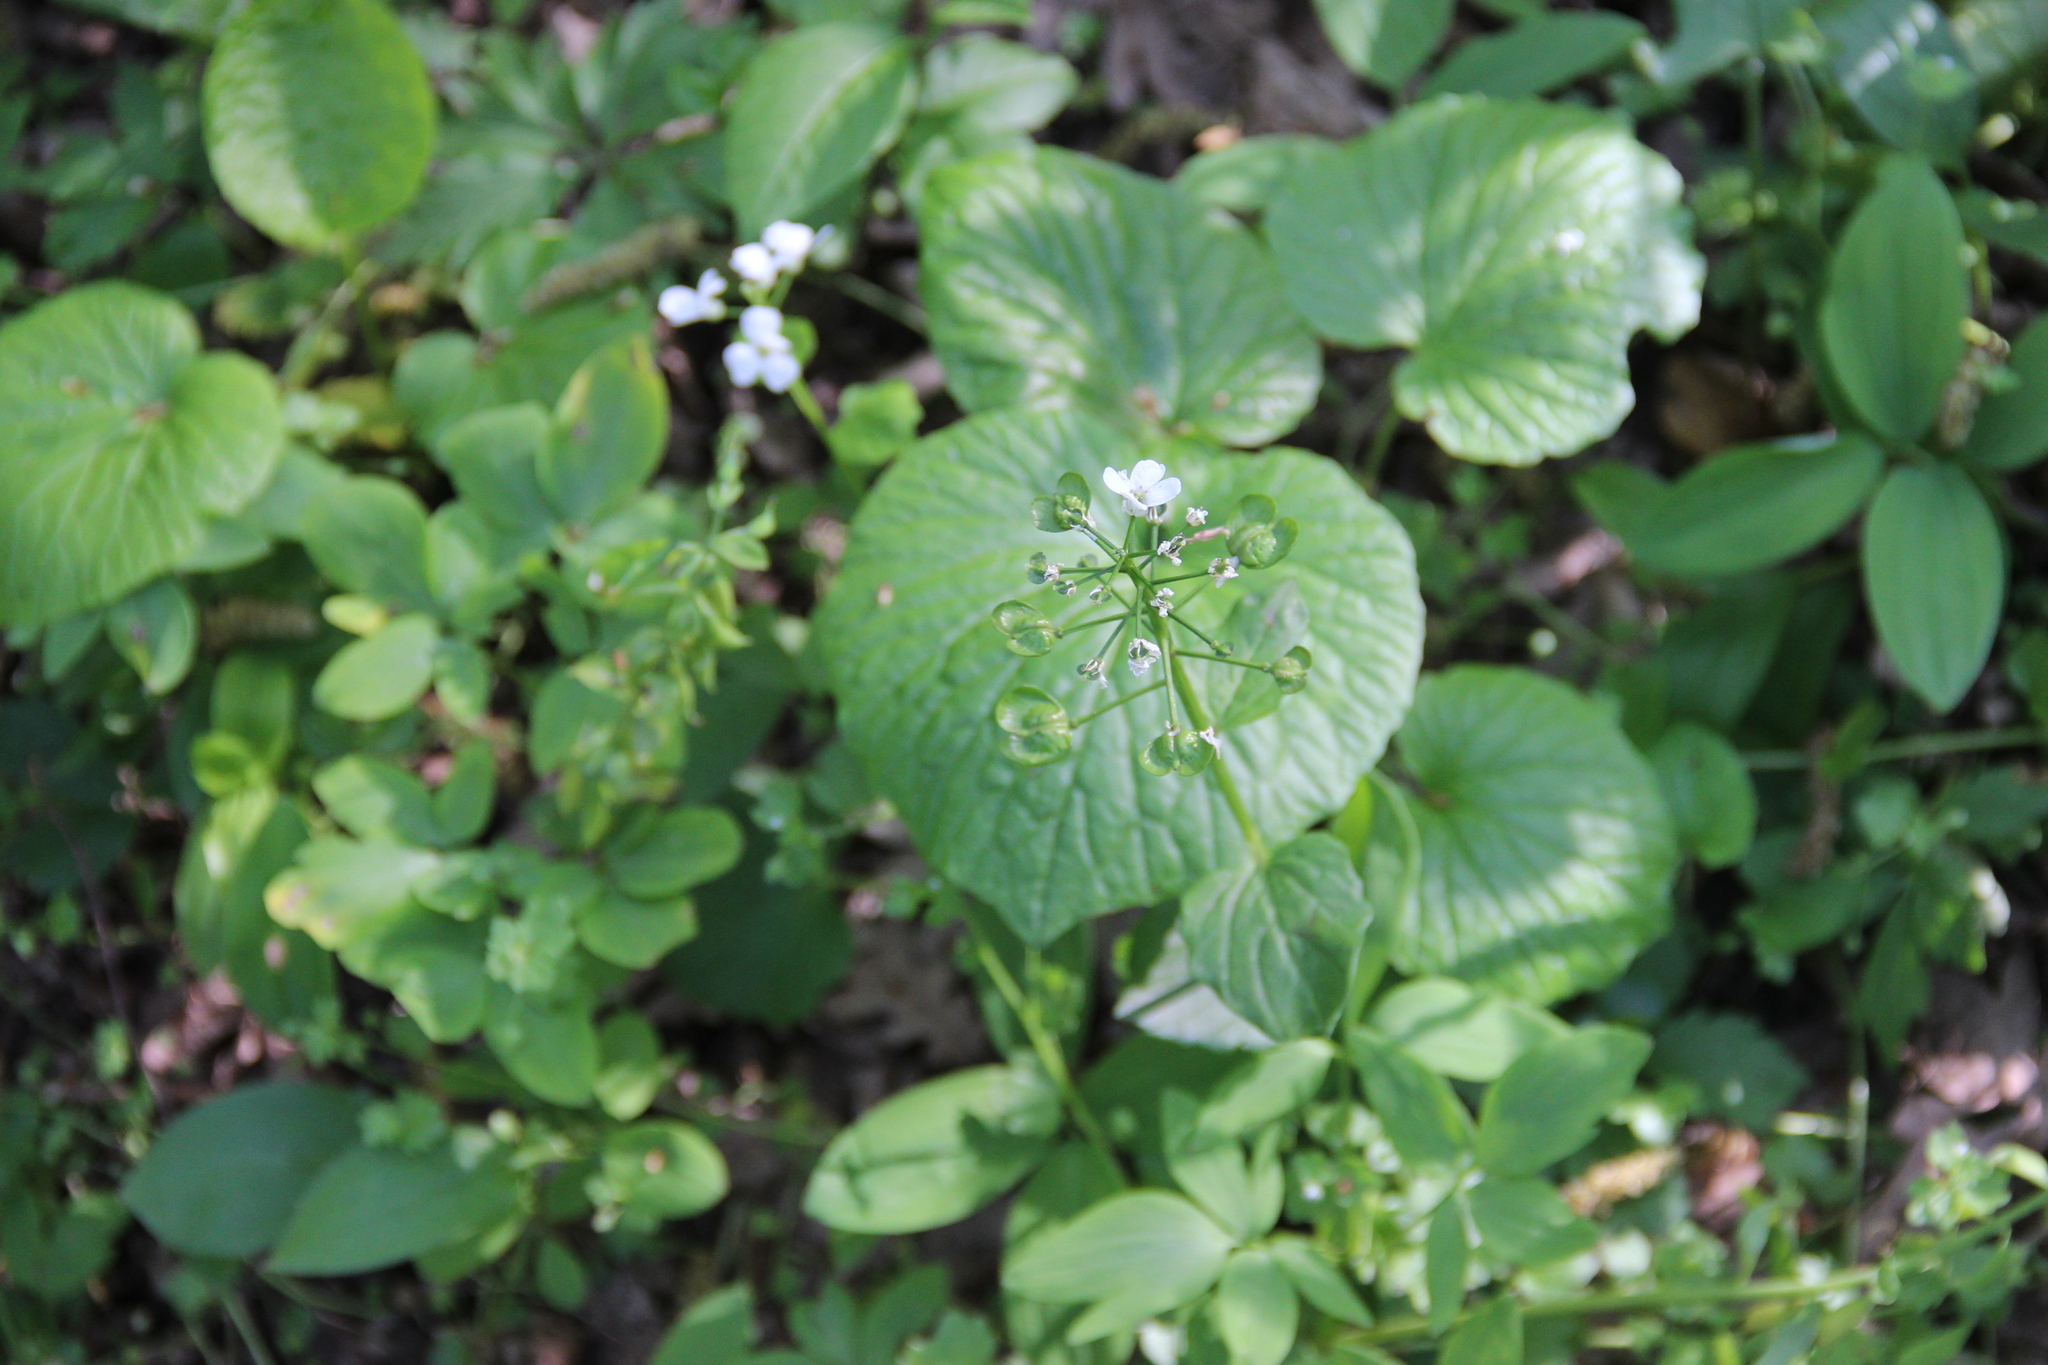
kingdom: Plantae
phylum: Tracheophyta
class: Magnoliopsida
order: Brassicales
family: Brassicaceae
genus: Pachyphragma
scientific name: Pachyphragma macrophyllum
